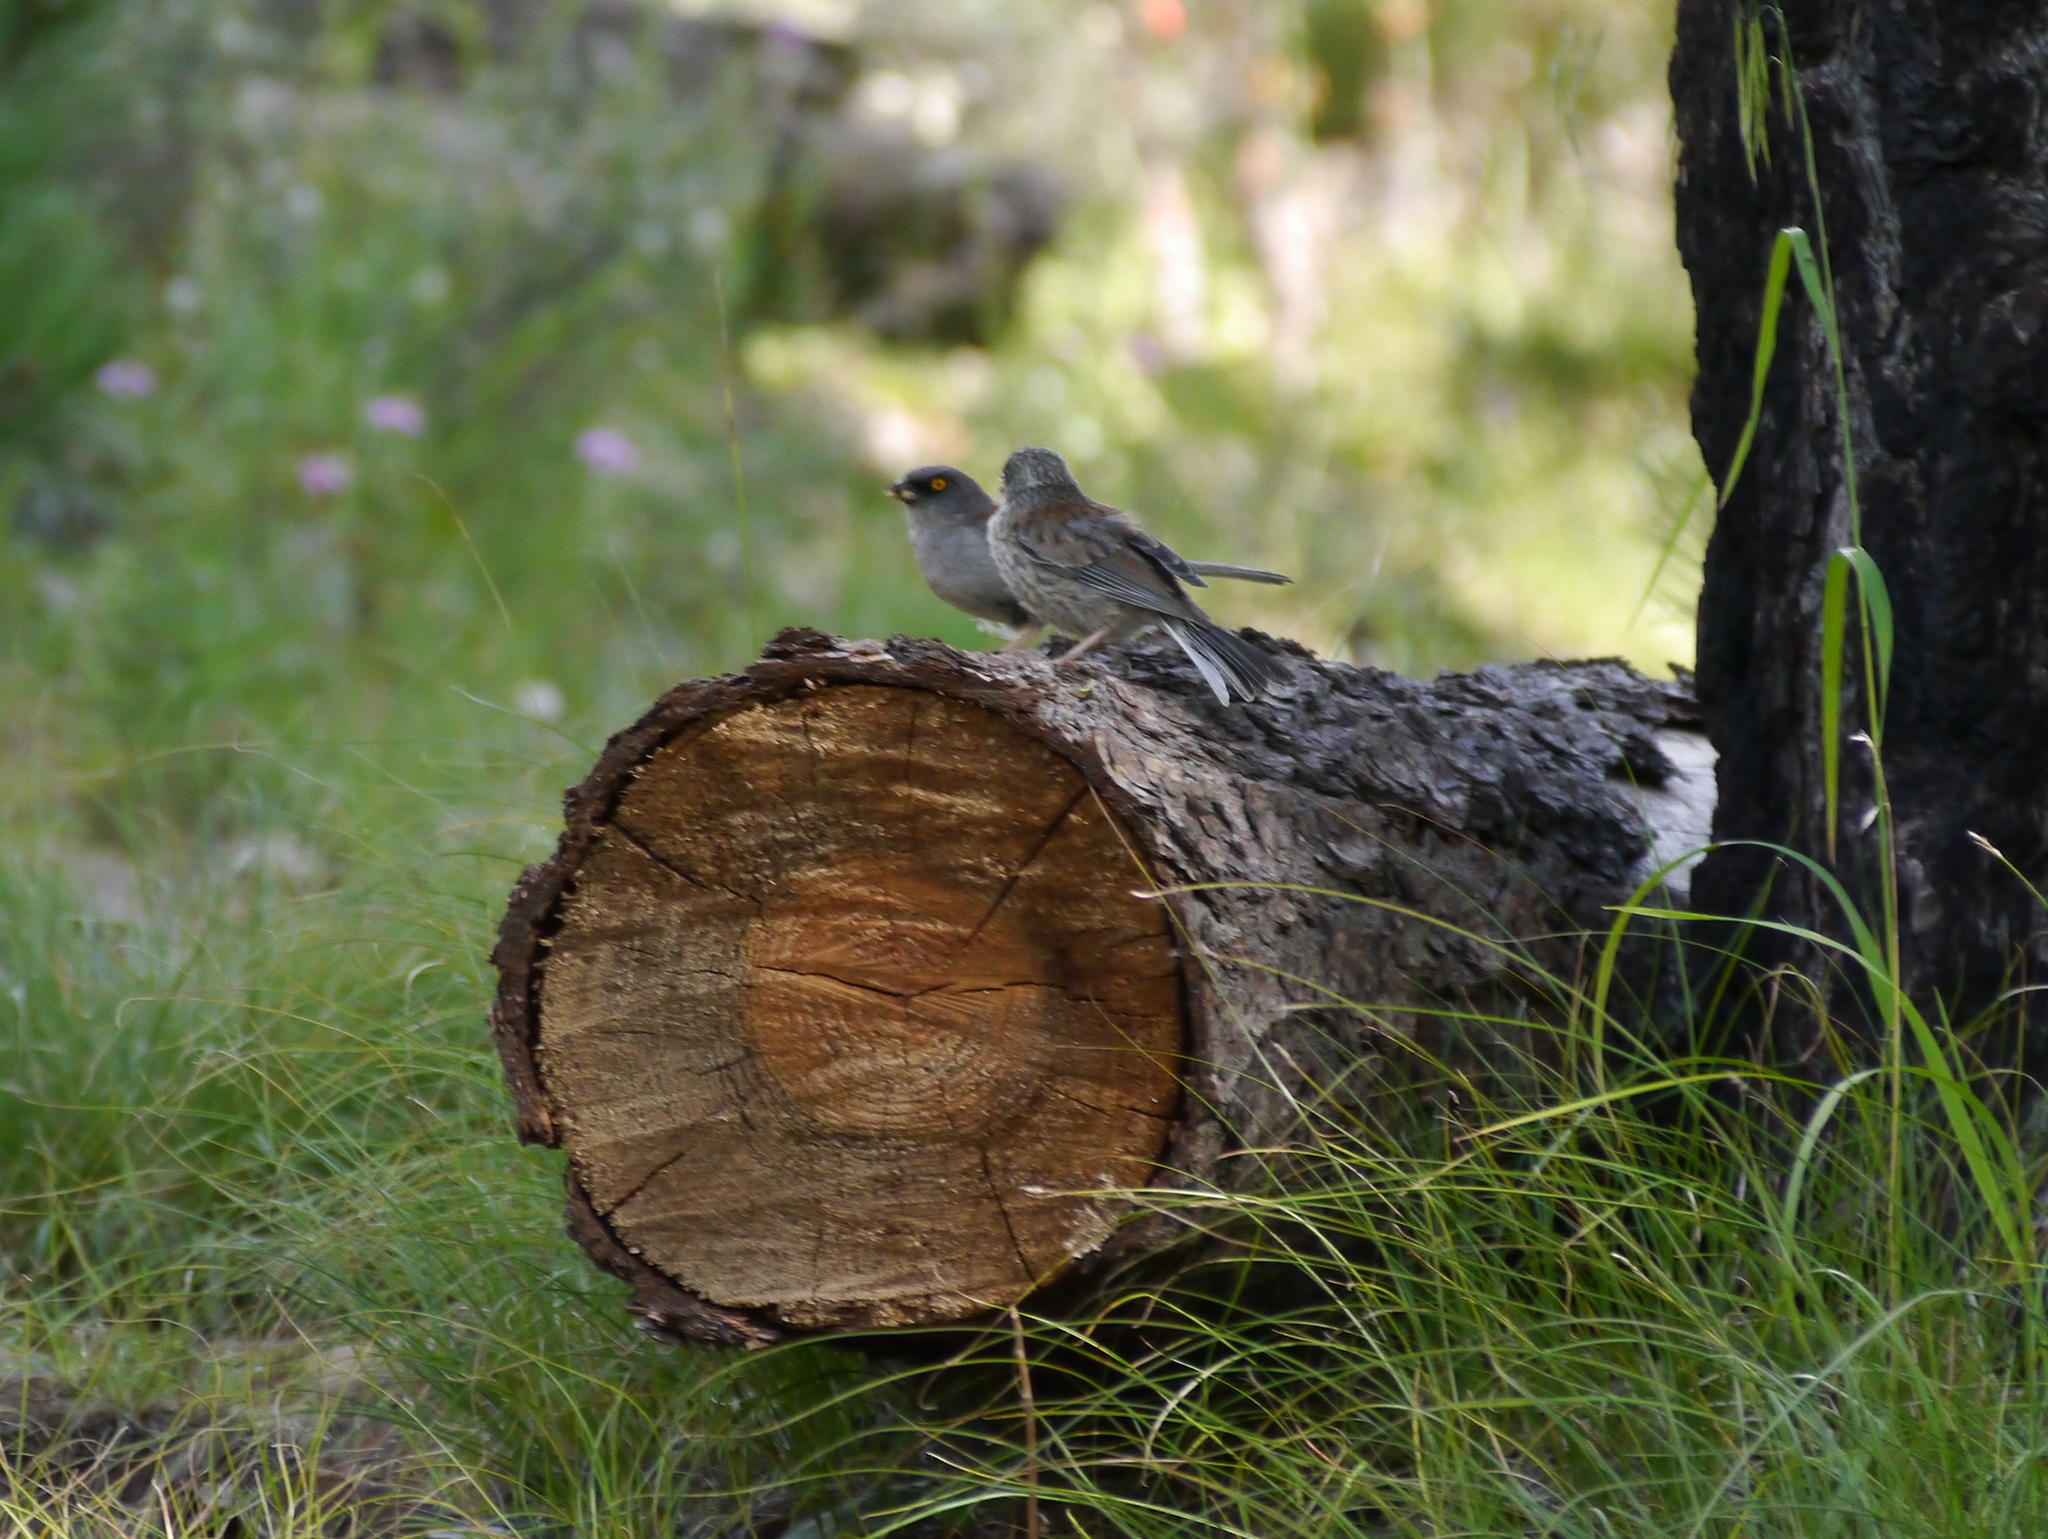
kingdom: Animalia
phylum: Chordata
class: Aves
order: Passeriformes
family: Passerellidae
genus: Junco
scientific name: Junco phaeonotus
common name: Yellow-eyed junco
